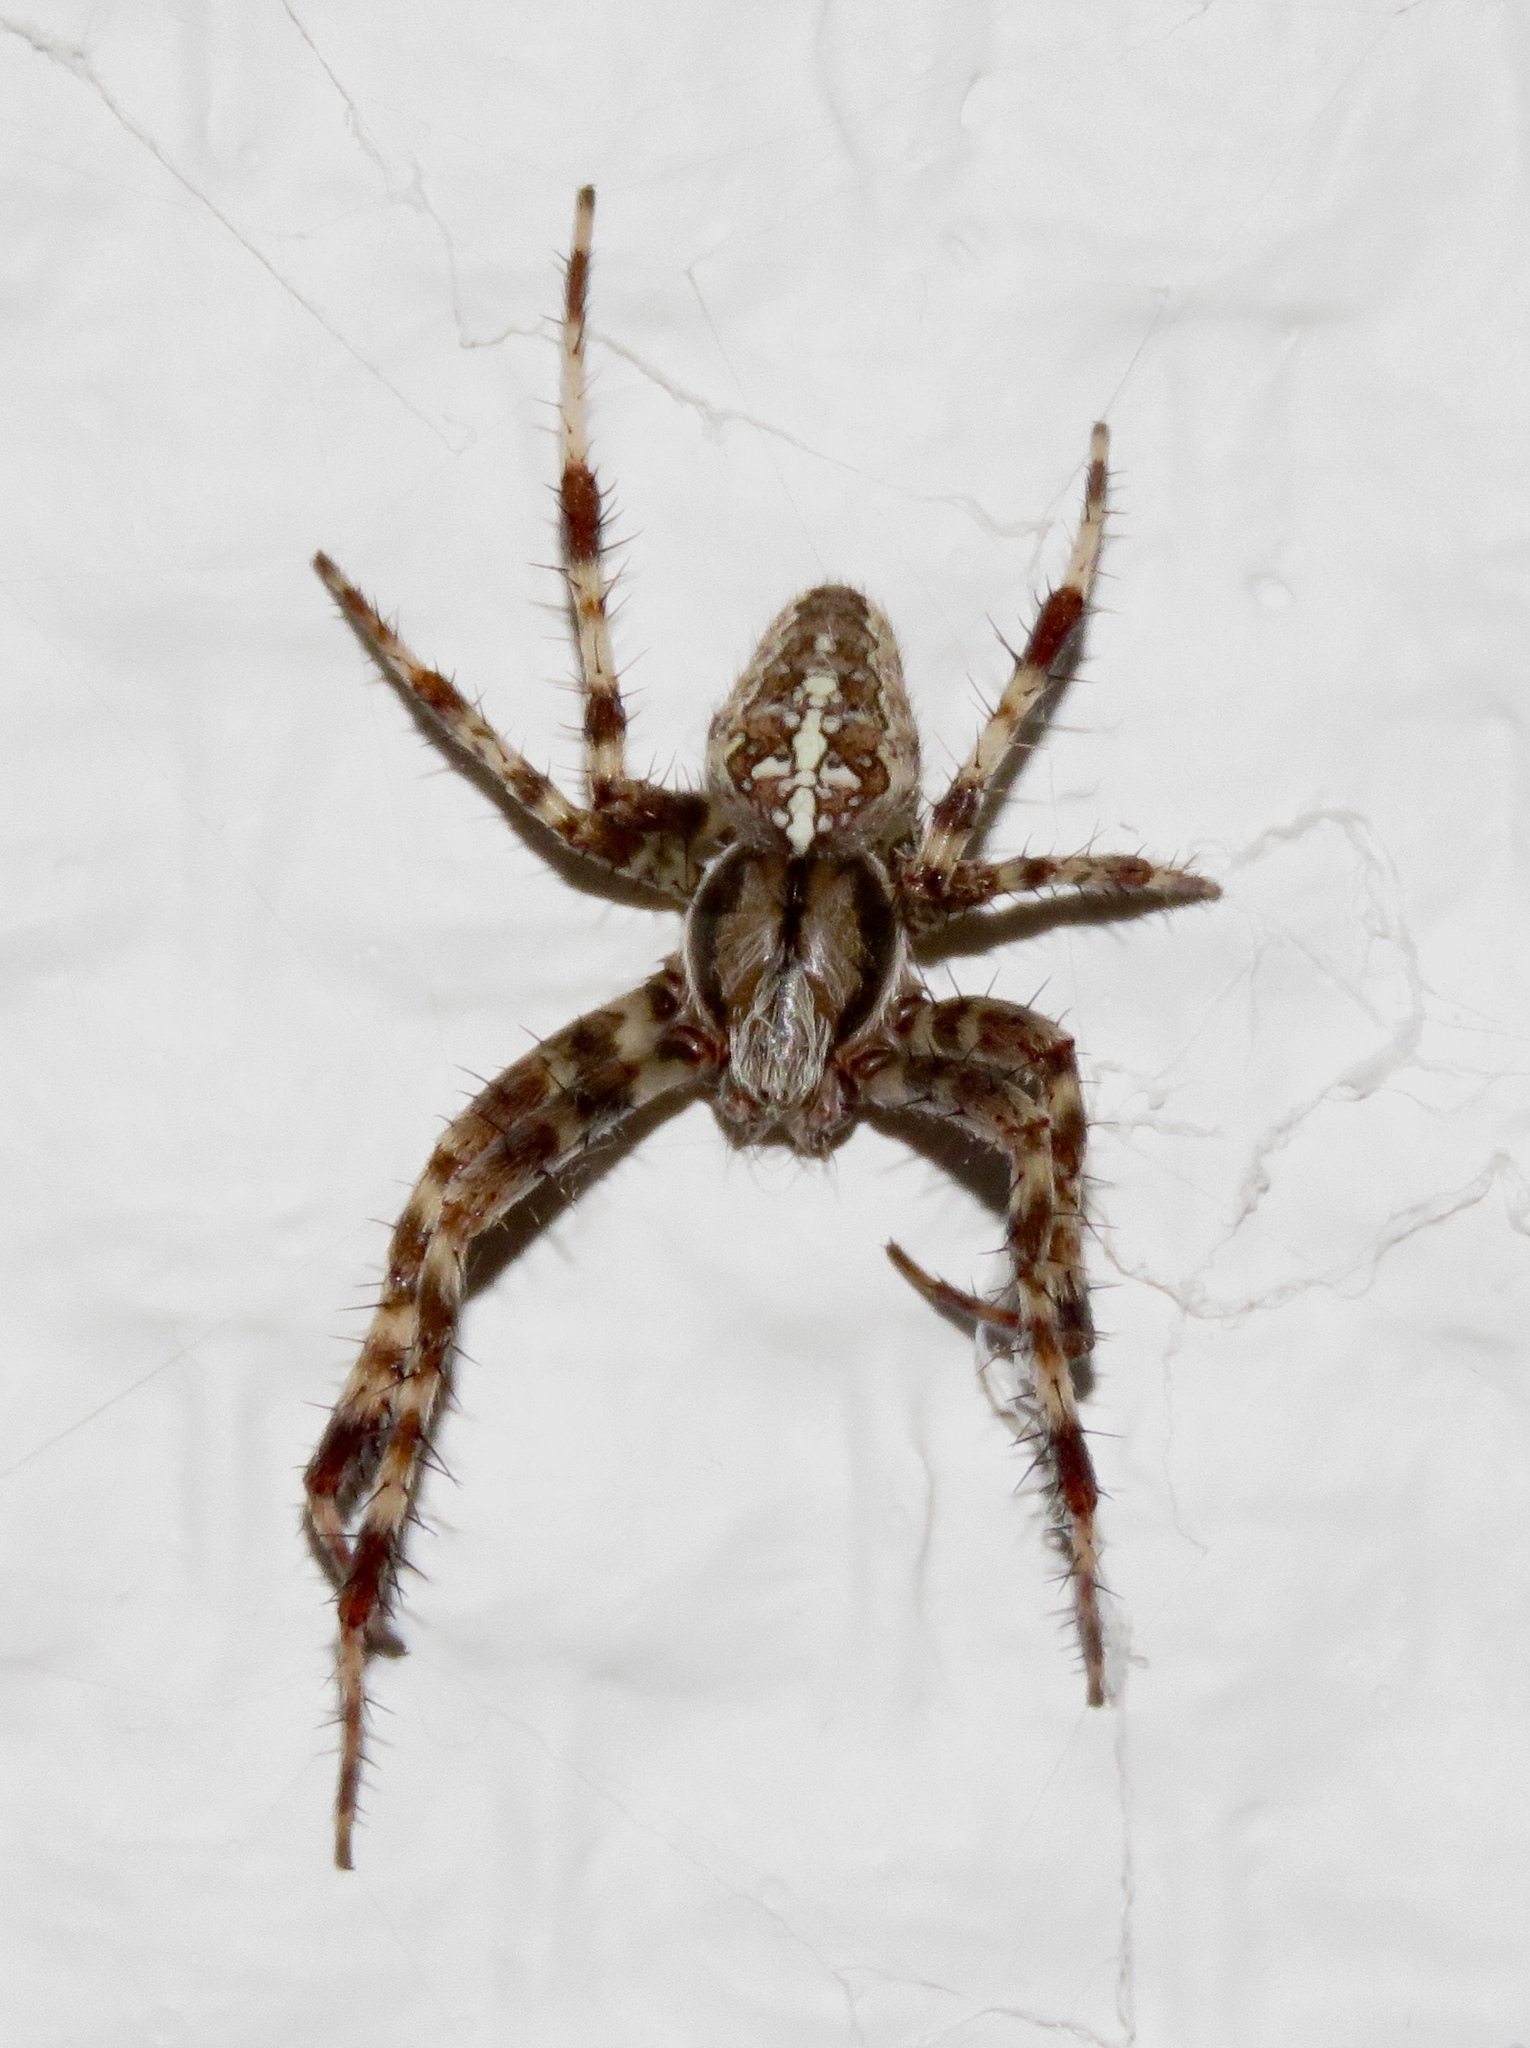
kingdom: Animalia
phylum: Arthropoda
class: Arachnida
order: Araneae
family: Araneidae
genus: Araneus
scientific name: Araneus diadematus
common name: Cross orbweaver
